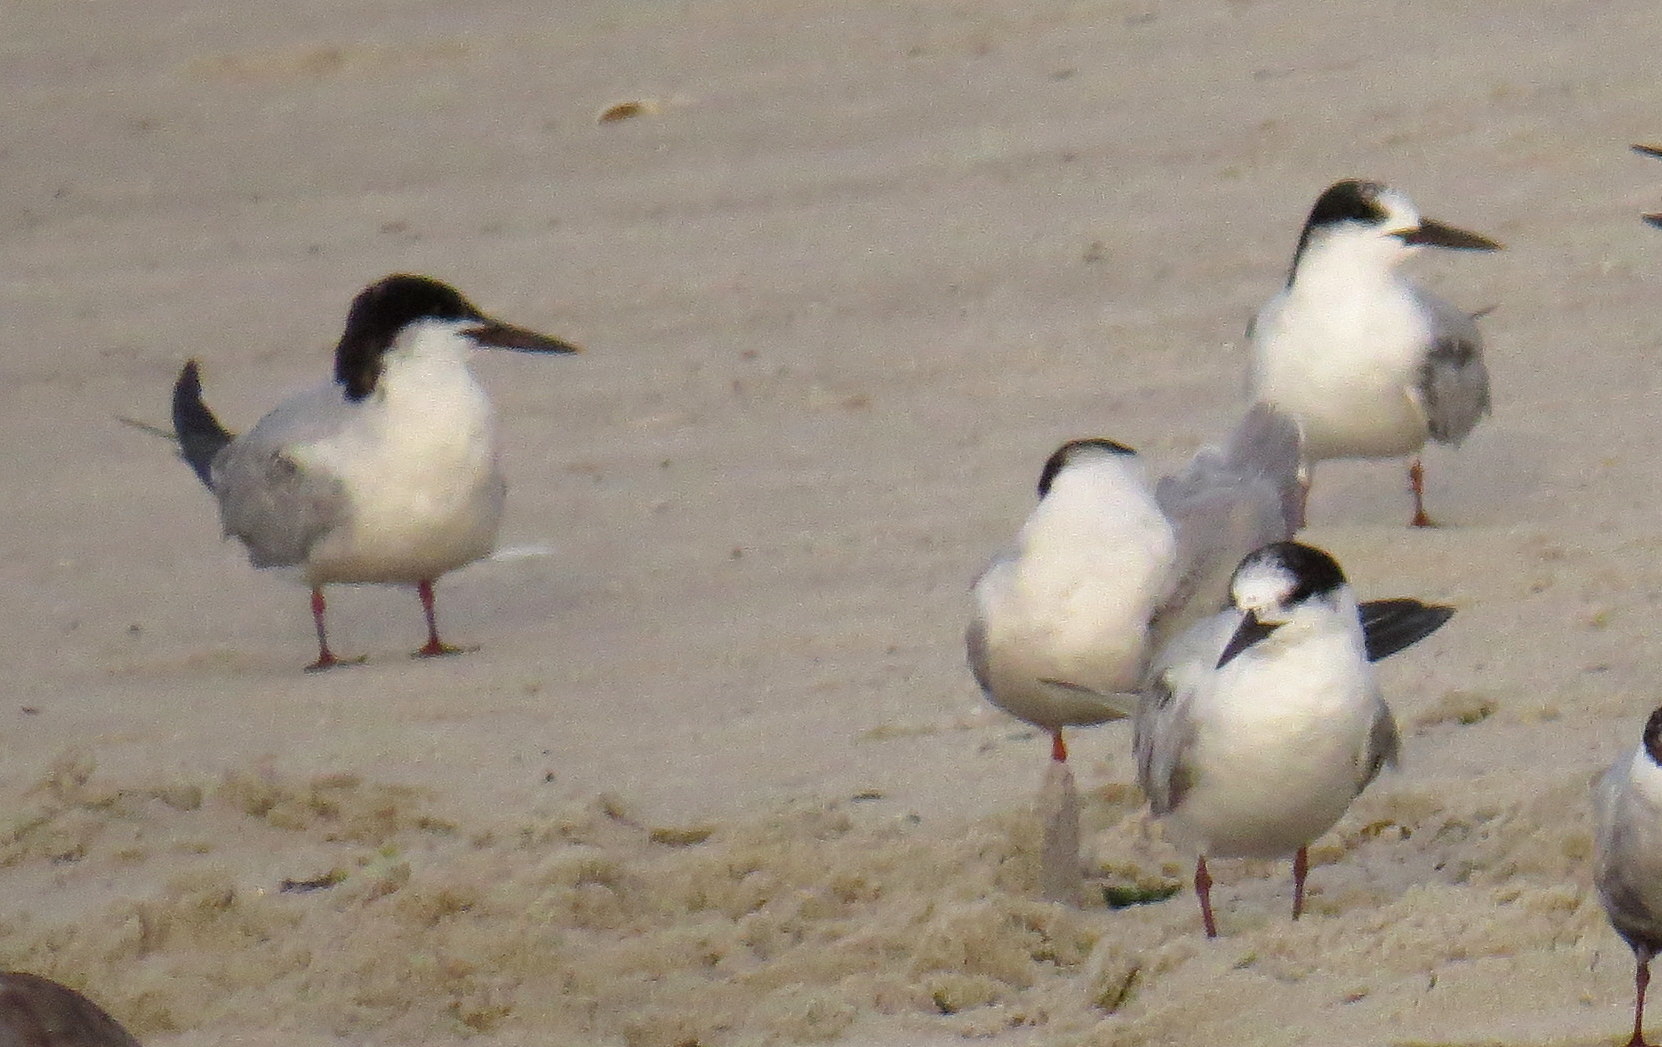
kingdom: Animalia
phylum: Chordata
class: Aves
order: Charadriiformes
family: Laridae
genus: Sterna
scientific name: Sterna hirundo
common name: Common tern
